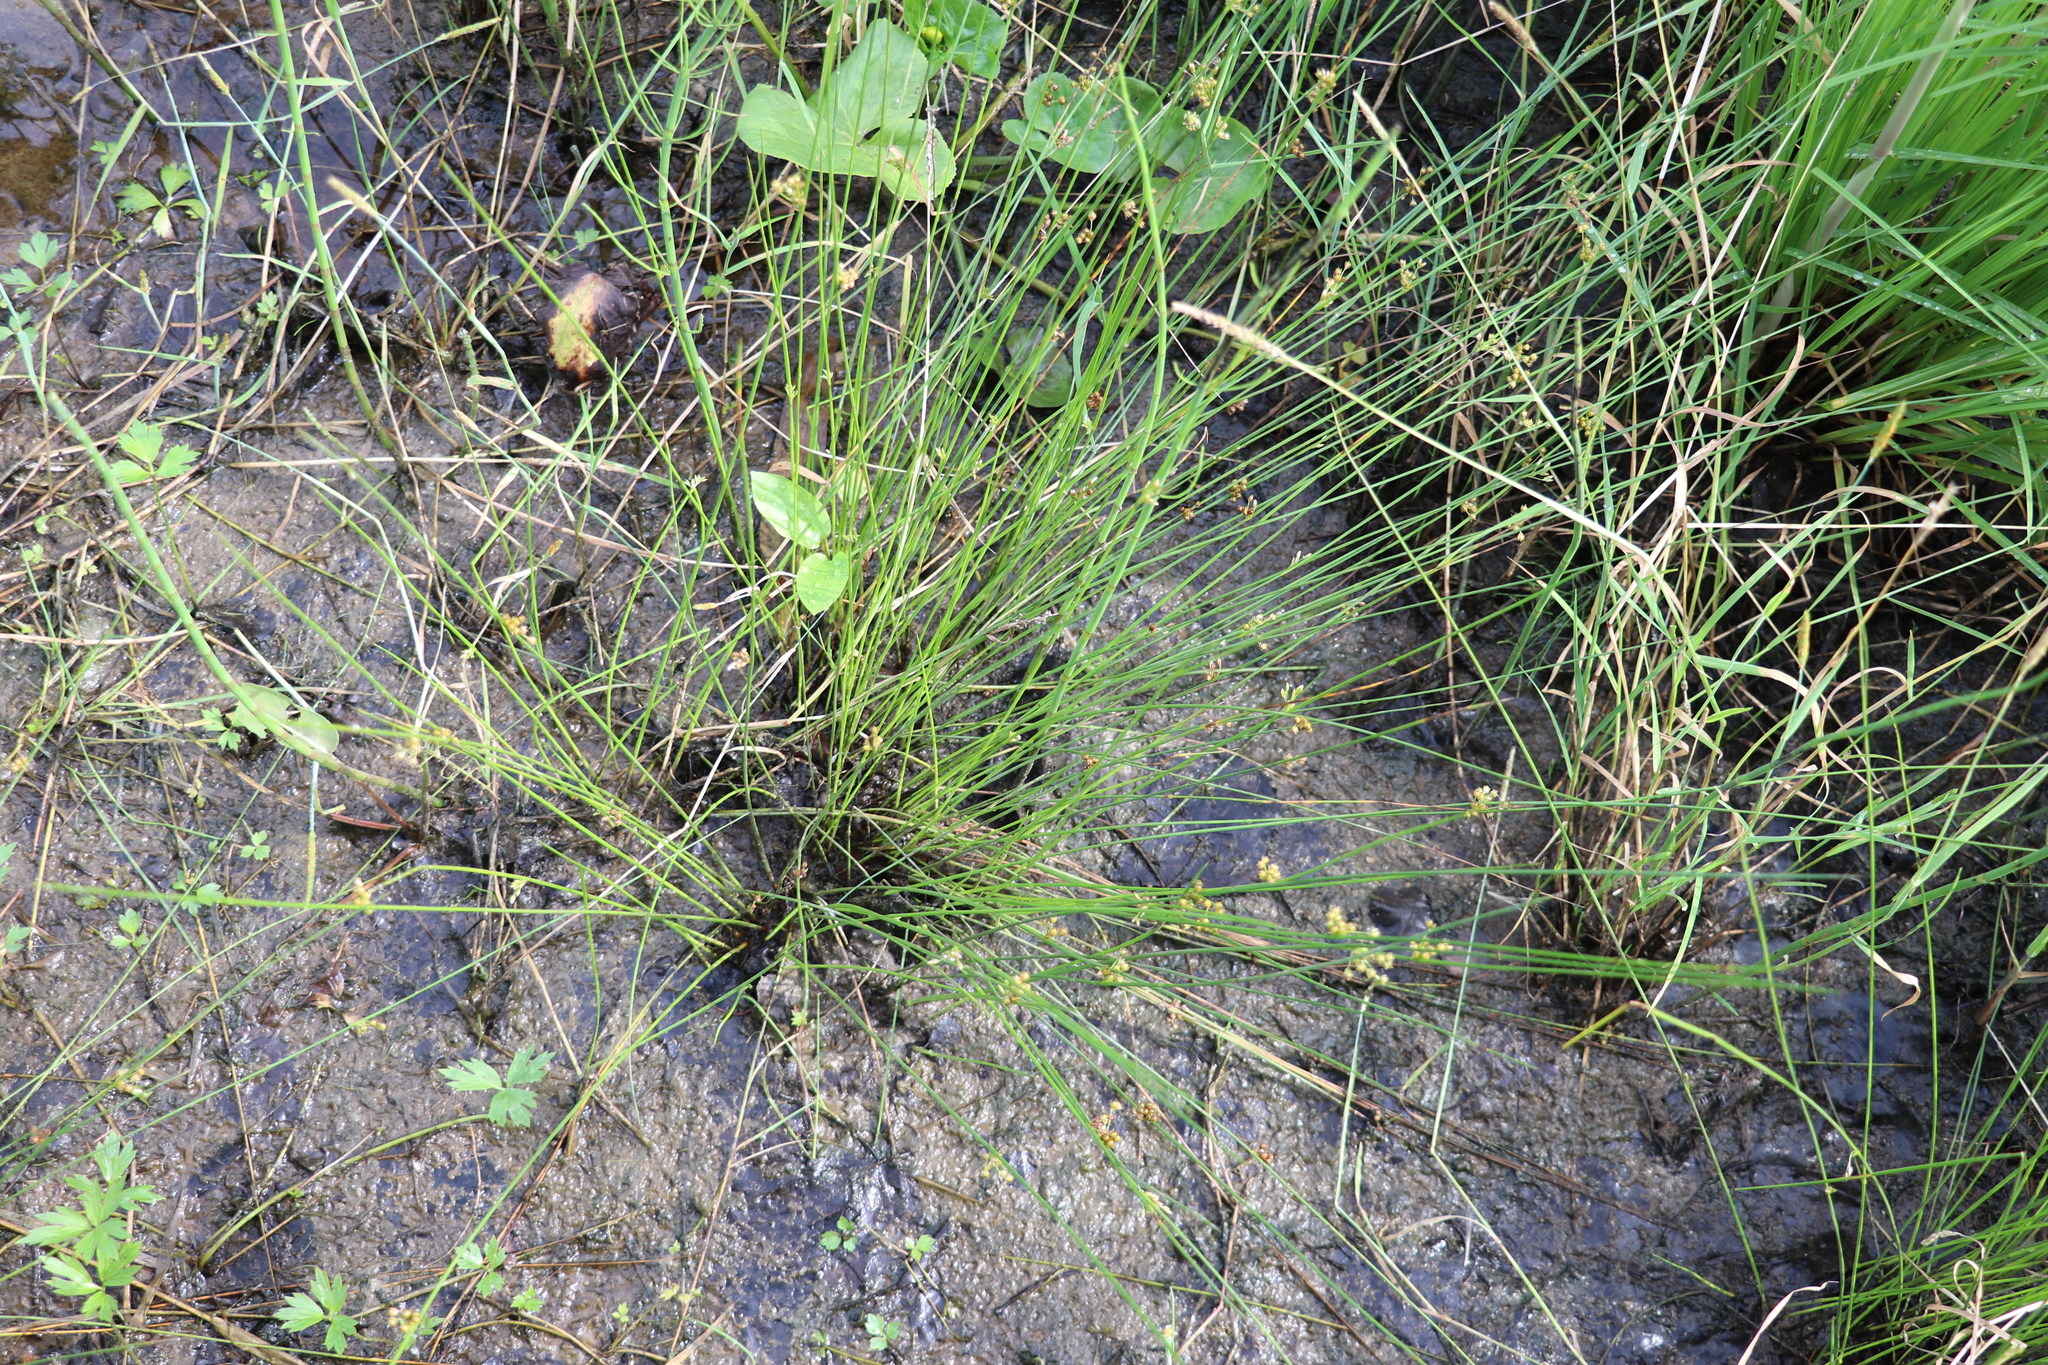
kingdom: Plantae
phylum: Tracheophyta
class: Liliopsida
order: Poales
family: Juncaceae
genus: Juncus
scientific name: Juncus filiformis
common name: Thread rush
